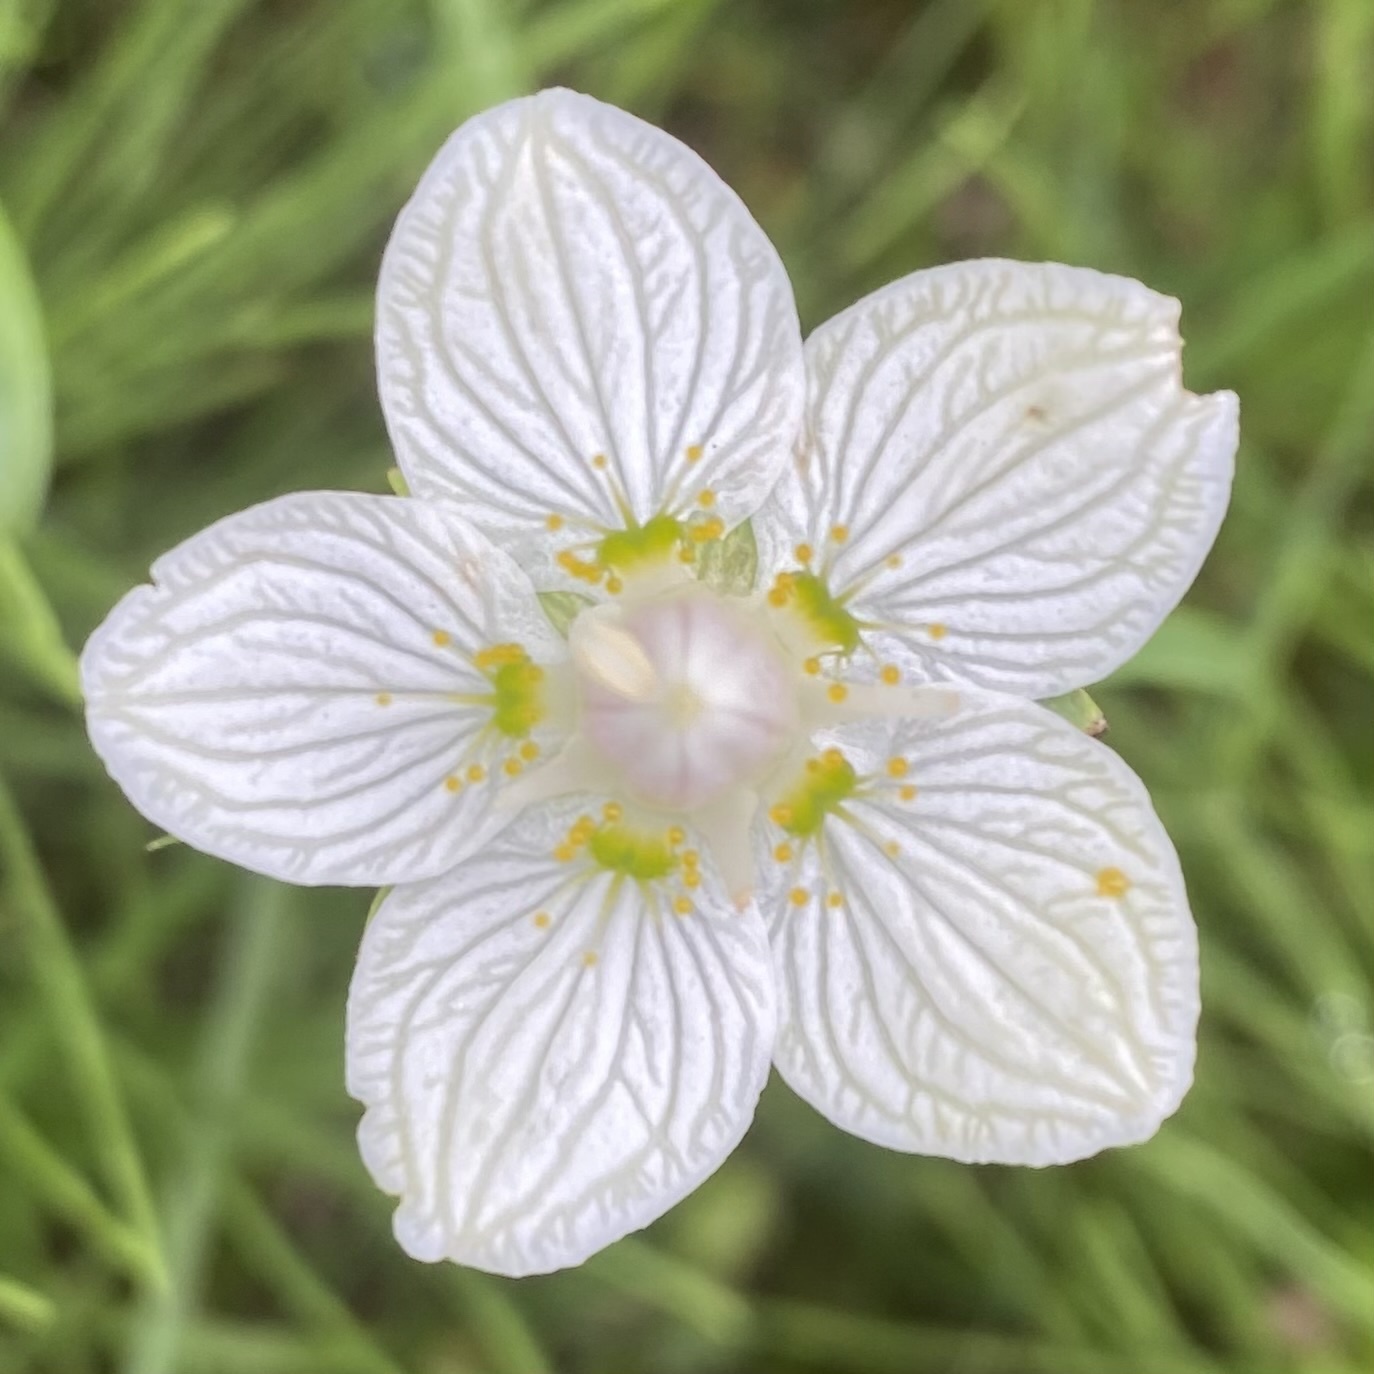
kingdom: Plantae
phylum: Tracheophyta
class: Magnoliopsida
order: Celastrales
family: Parnassiaceae
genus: Parnassia
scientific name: Parnassia palustris
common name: Grass-of-parnassus
